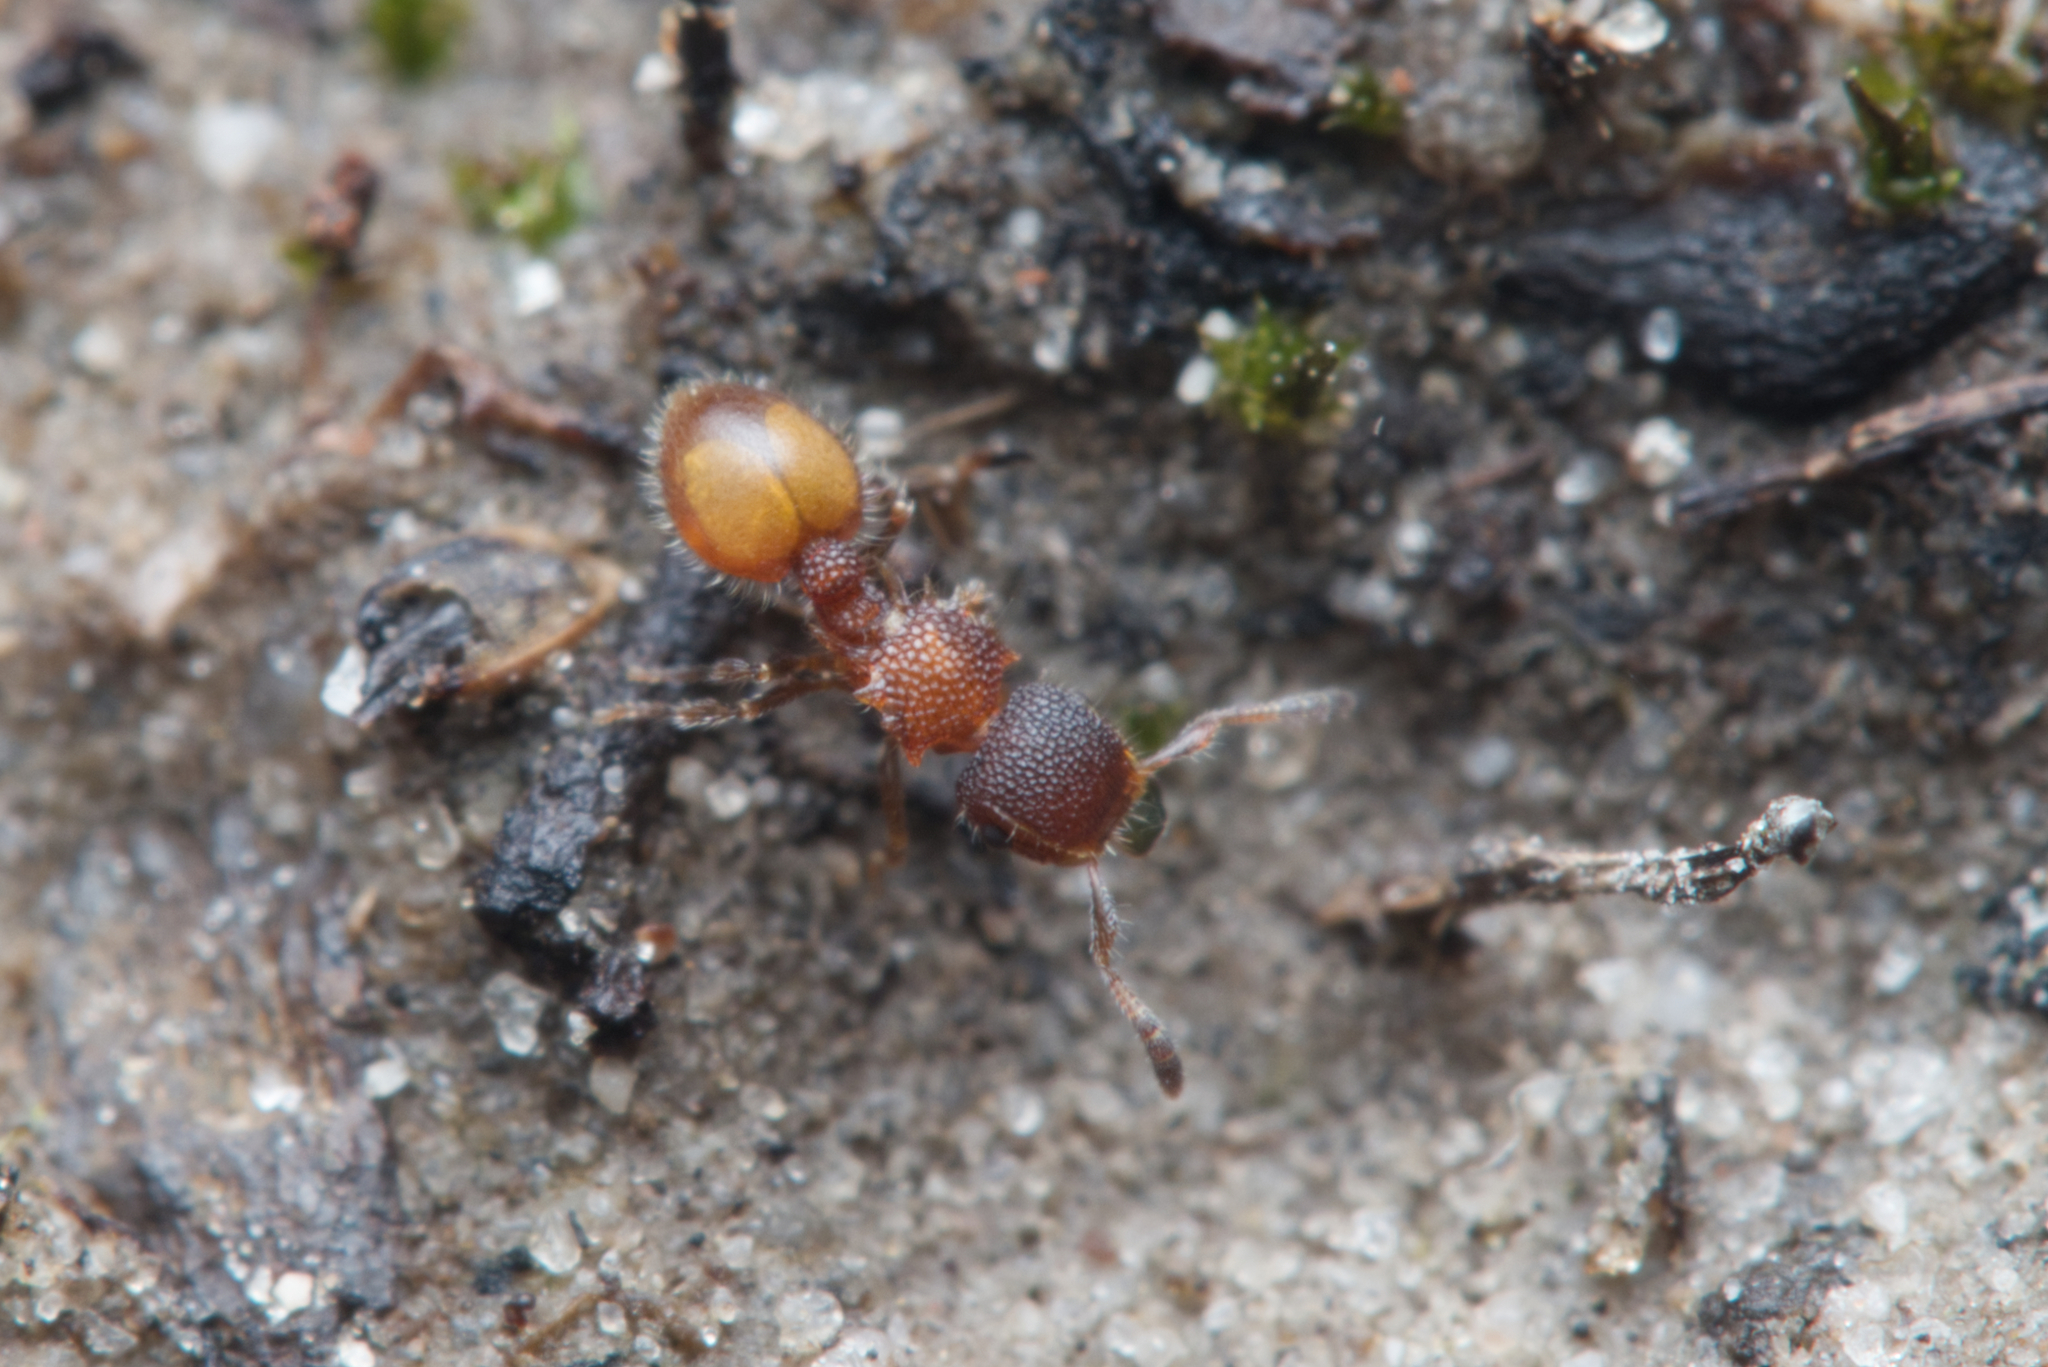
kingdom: Animalia
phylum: Arthropoda
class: Insecta
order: Hymenoptera
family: Formicidae
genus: Meranoplus
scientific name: Meranoplus
